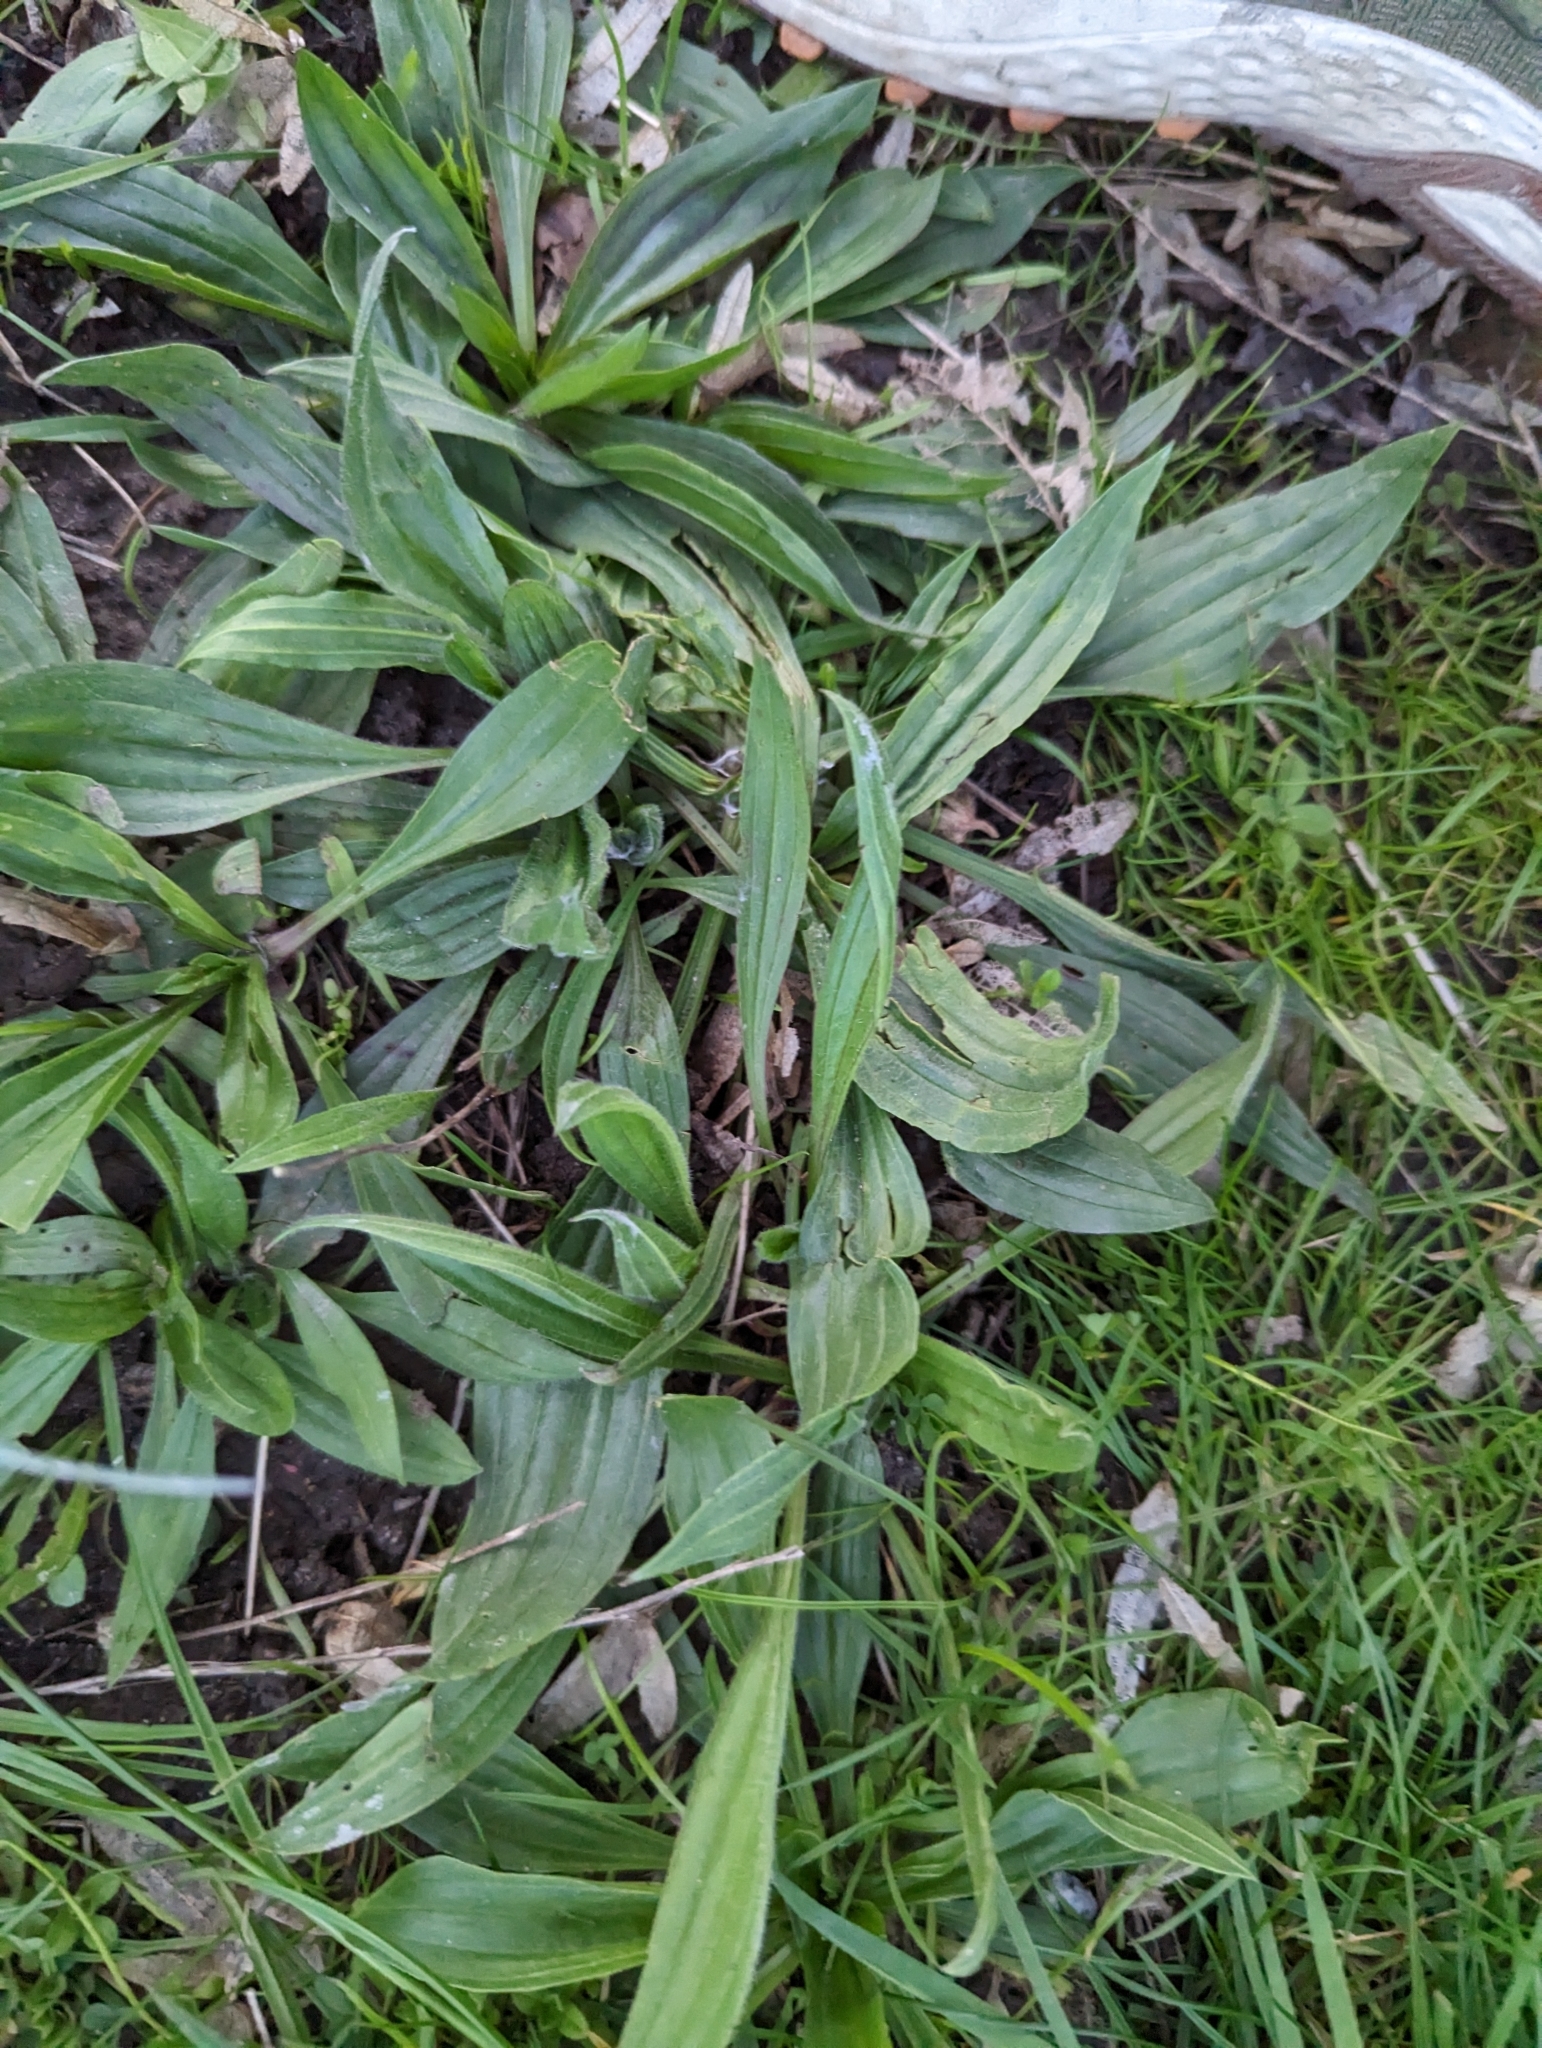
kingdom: Plantae
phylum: Tracheophyta
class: Magnoliopsida
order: Lamiales
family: Plantaginaceae
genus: Plantago
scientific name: Plantago lanceolata
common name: Ribwort plantain
